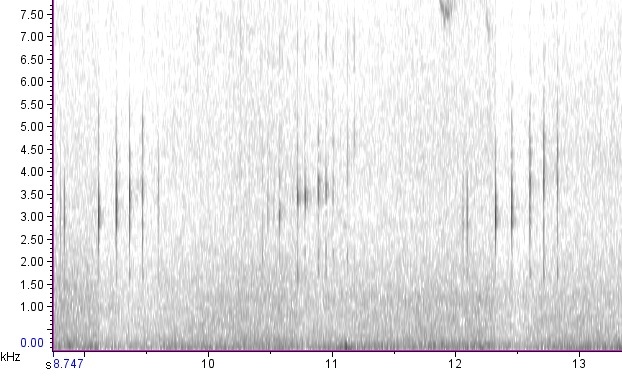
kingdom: Animalia
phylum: Chordata
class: Amphibia
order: Anura
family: Hylidae
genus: Pseudacris
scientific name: Pseudacris feriarum
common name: Upland chorus frog
